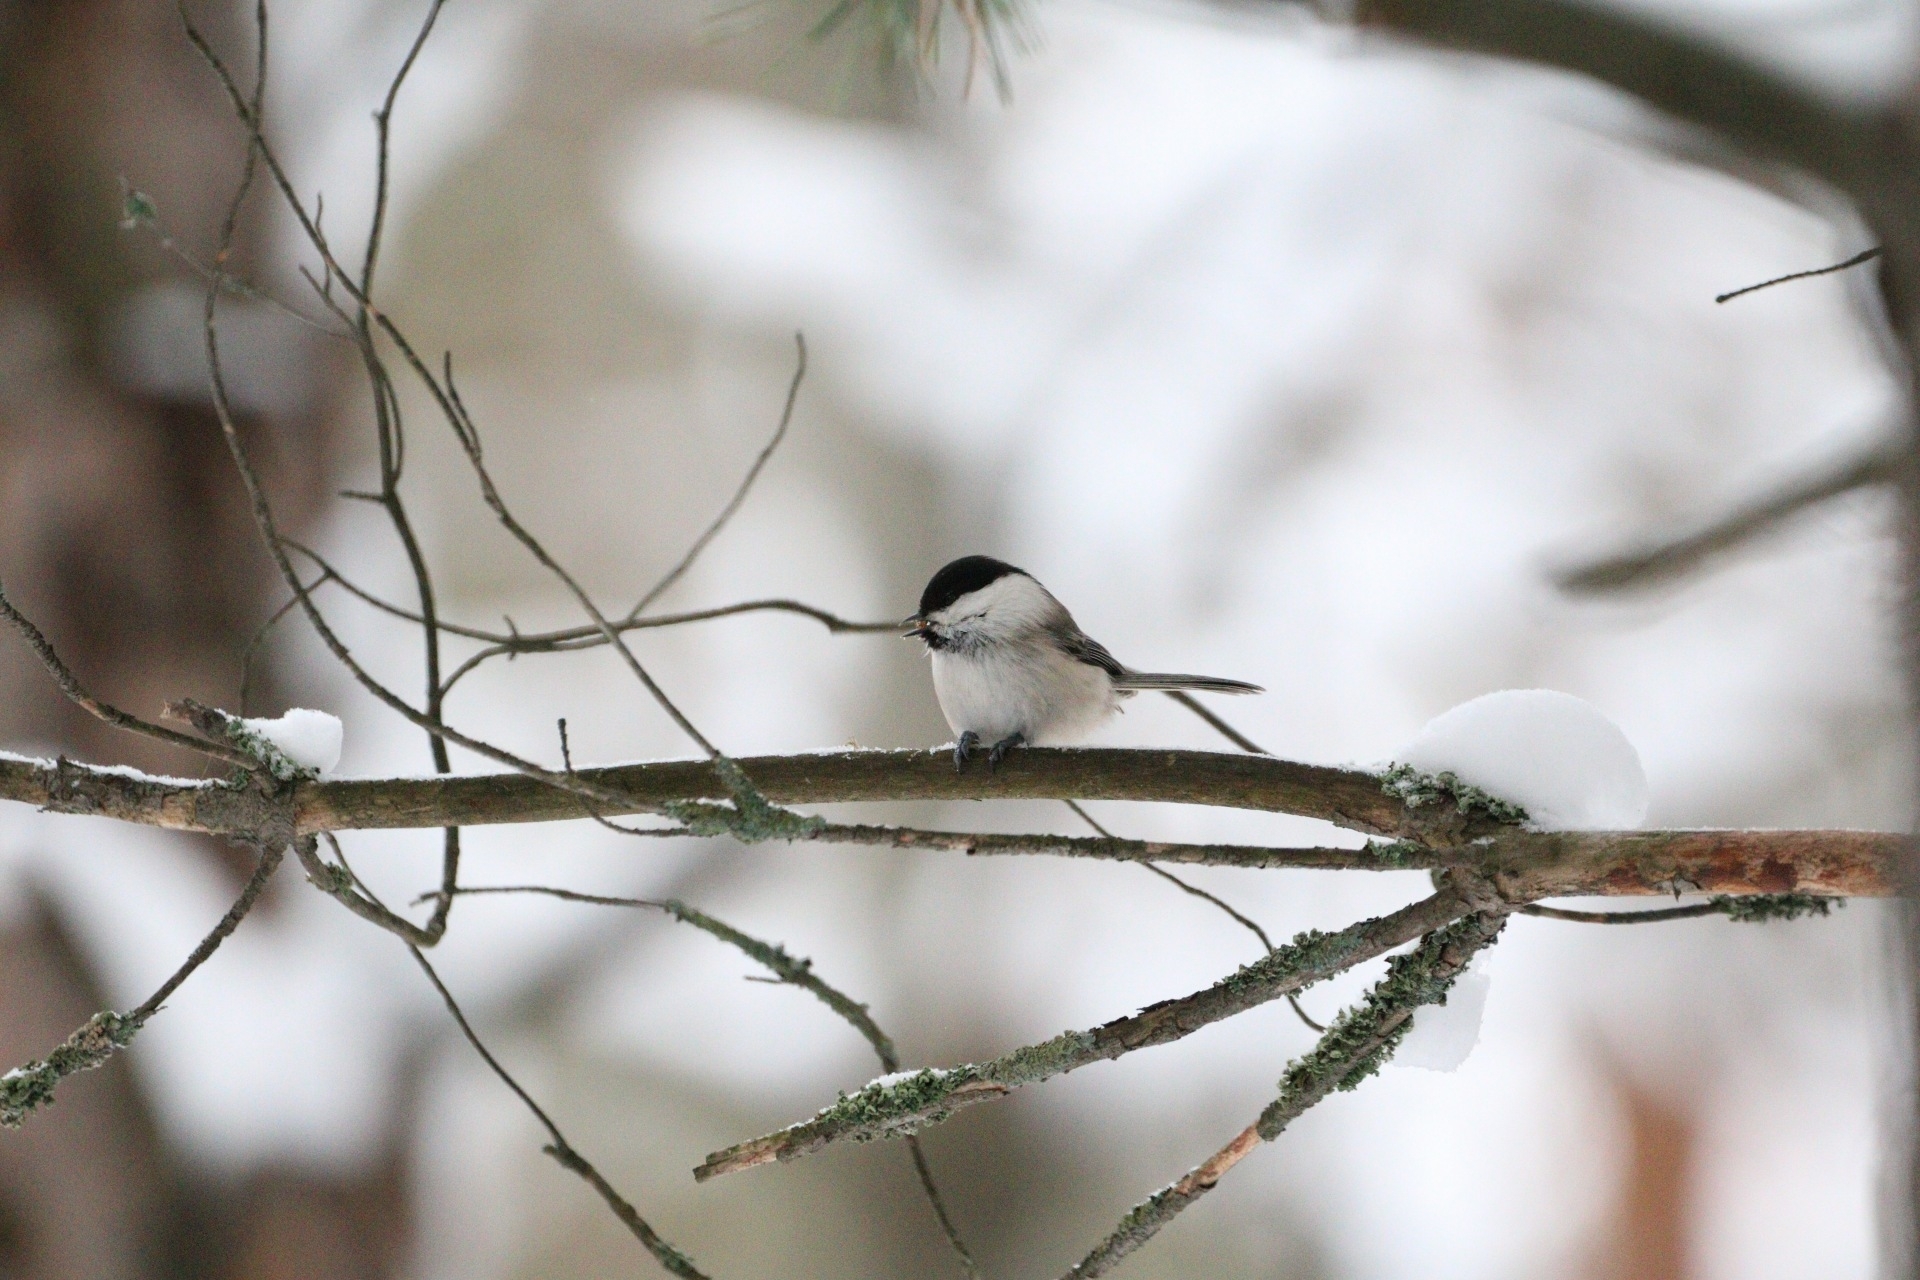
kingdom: Animalia
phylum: Chordata
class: Aves
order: Passeriformes
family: Paridae
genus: Poecile
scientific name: Poecile montanus
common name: Willow tit
